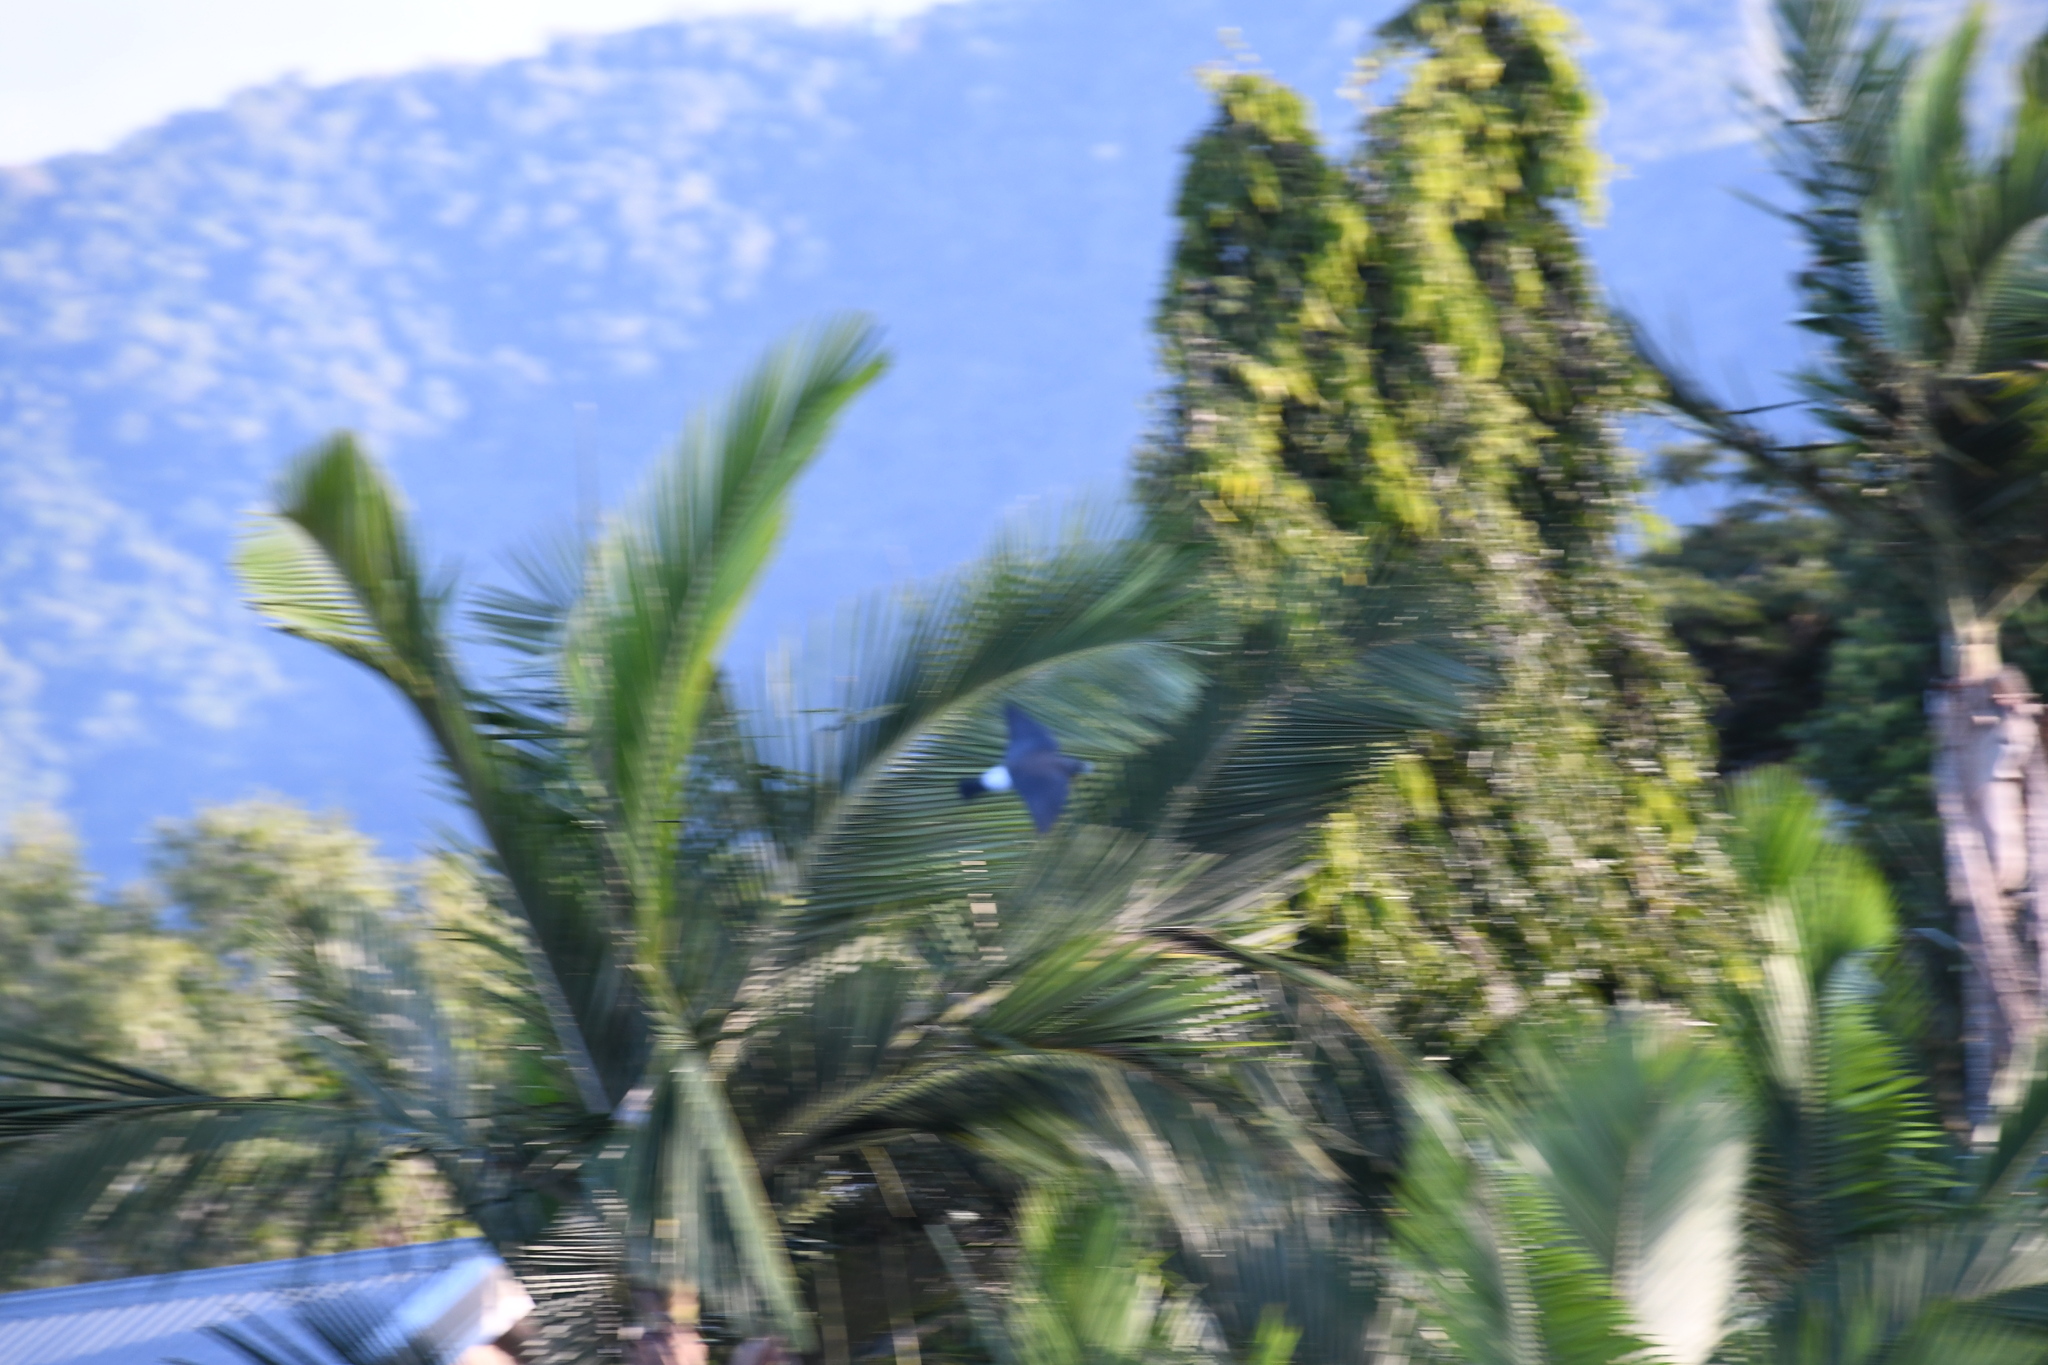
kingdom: Animalia
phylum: Chordata
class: Aves
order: Passeriformes
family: Artamidae
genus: Artamus
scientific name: Artamus leucoryn
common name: White-breasted woodswallow
